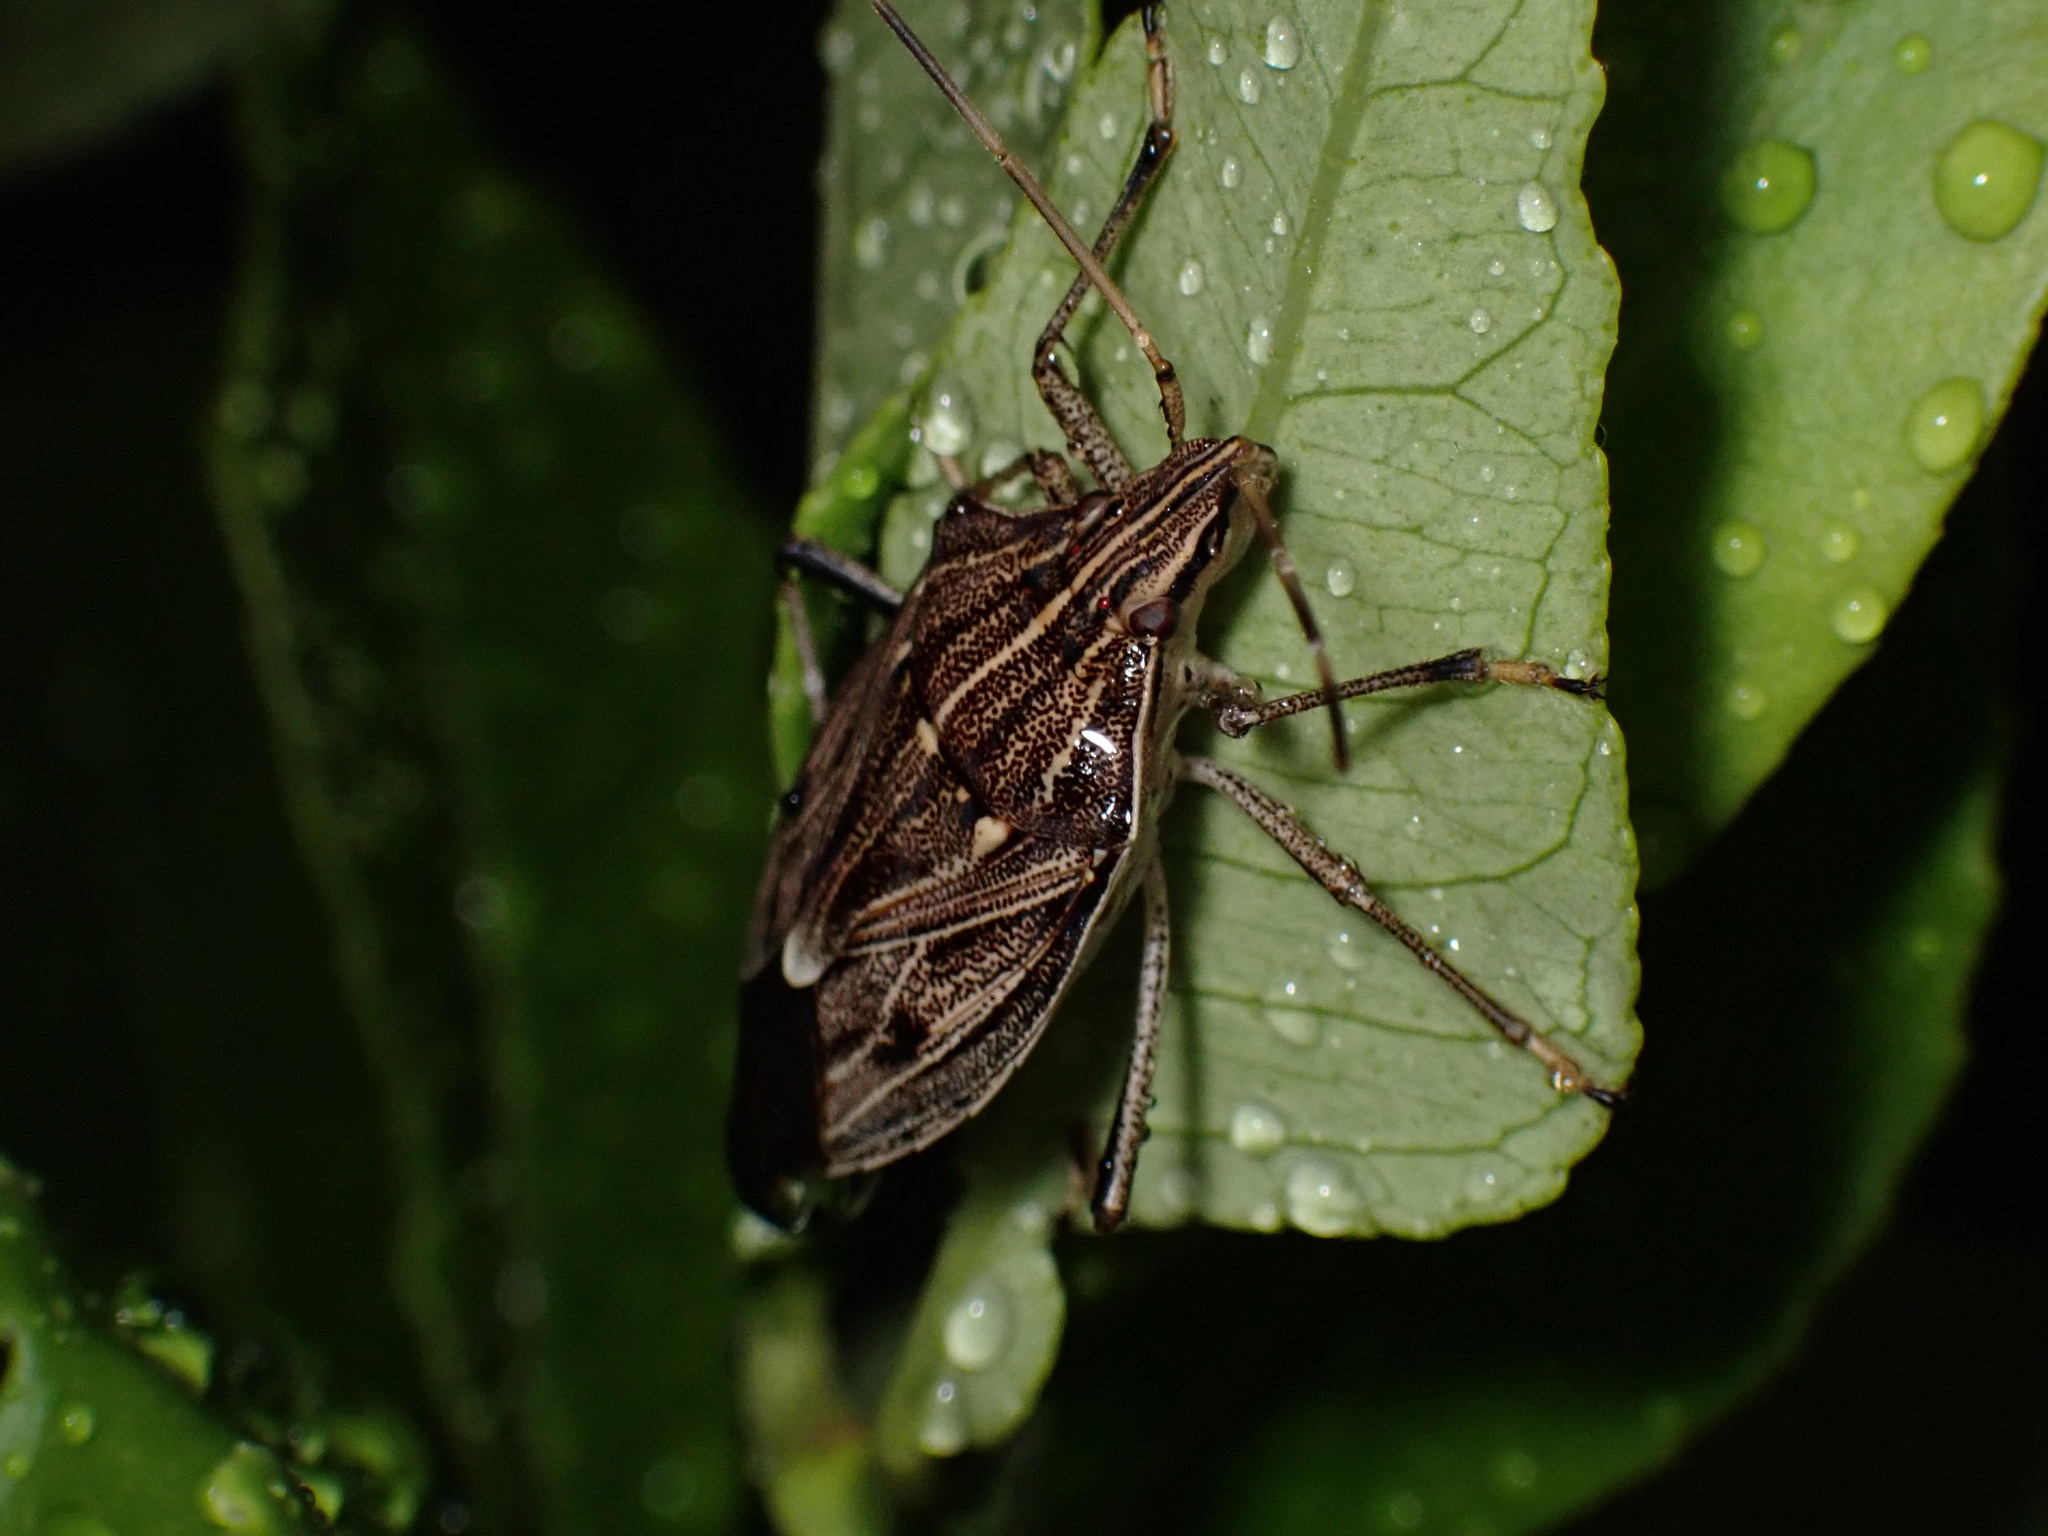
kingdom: Animalia
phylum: Arthropoda
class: Insecta
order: Hemiptera
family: Pentatomidae
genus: Poecilometis
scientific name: Poecilometis
